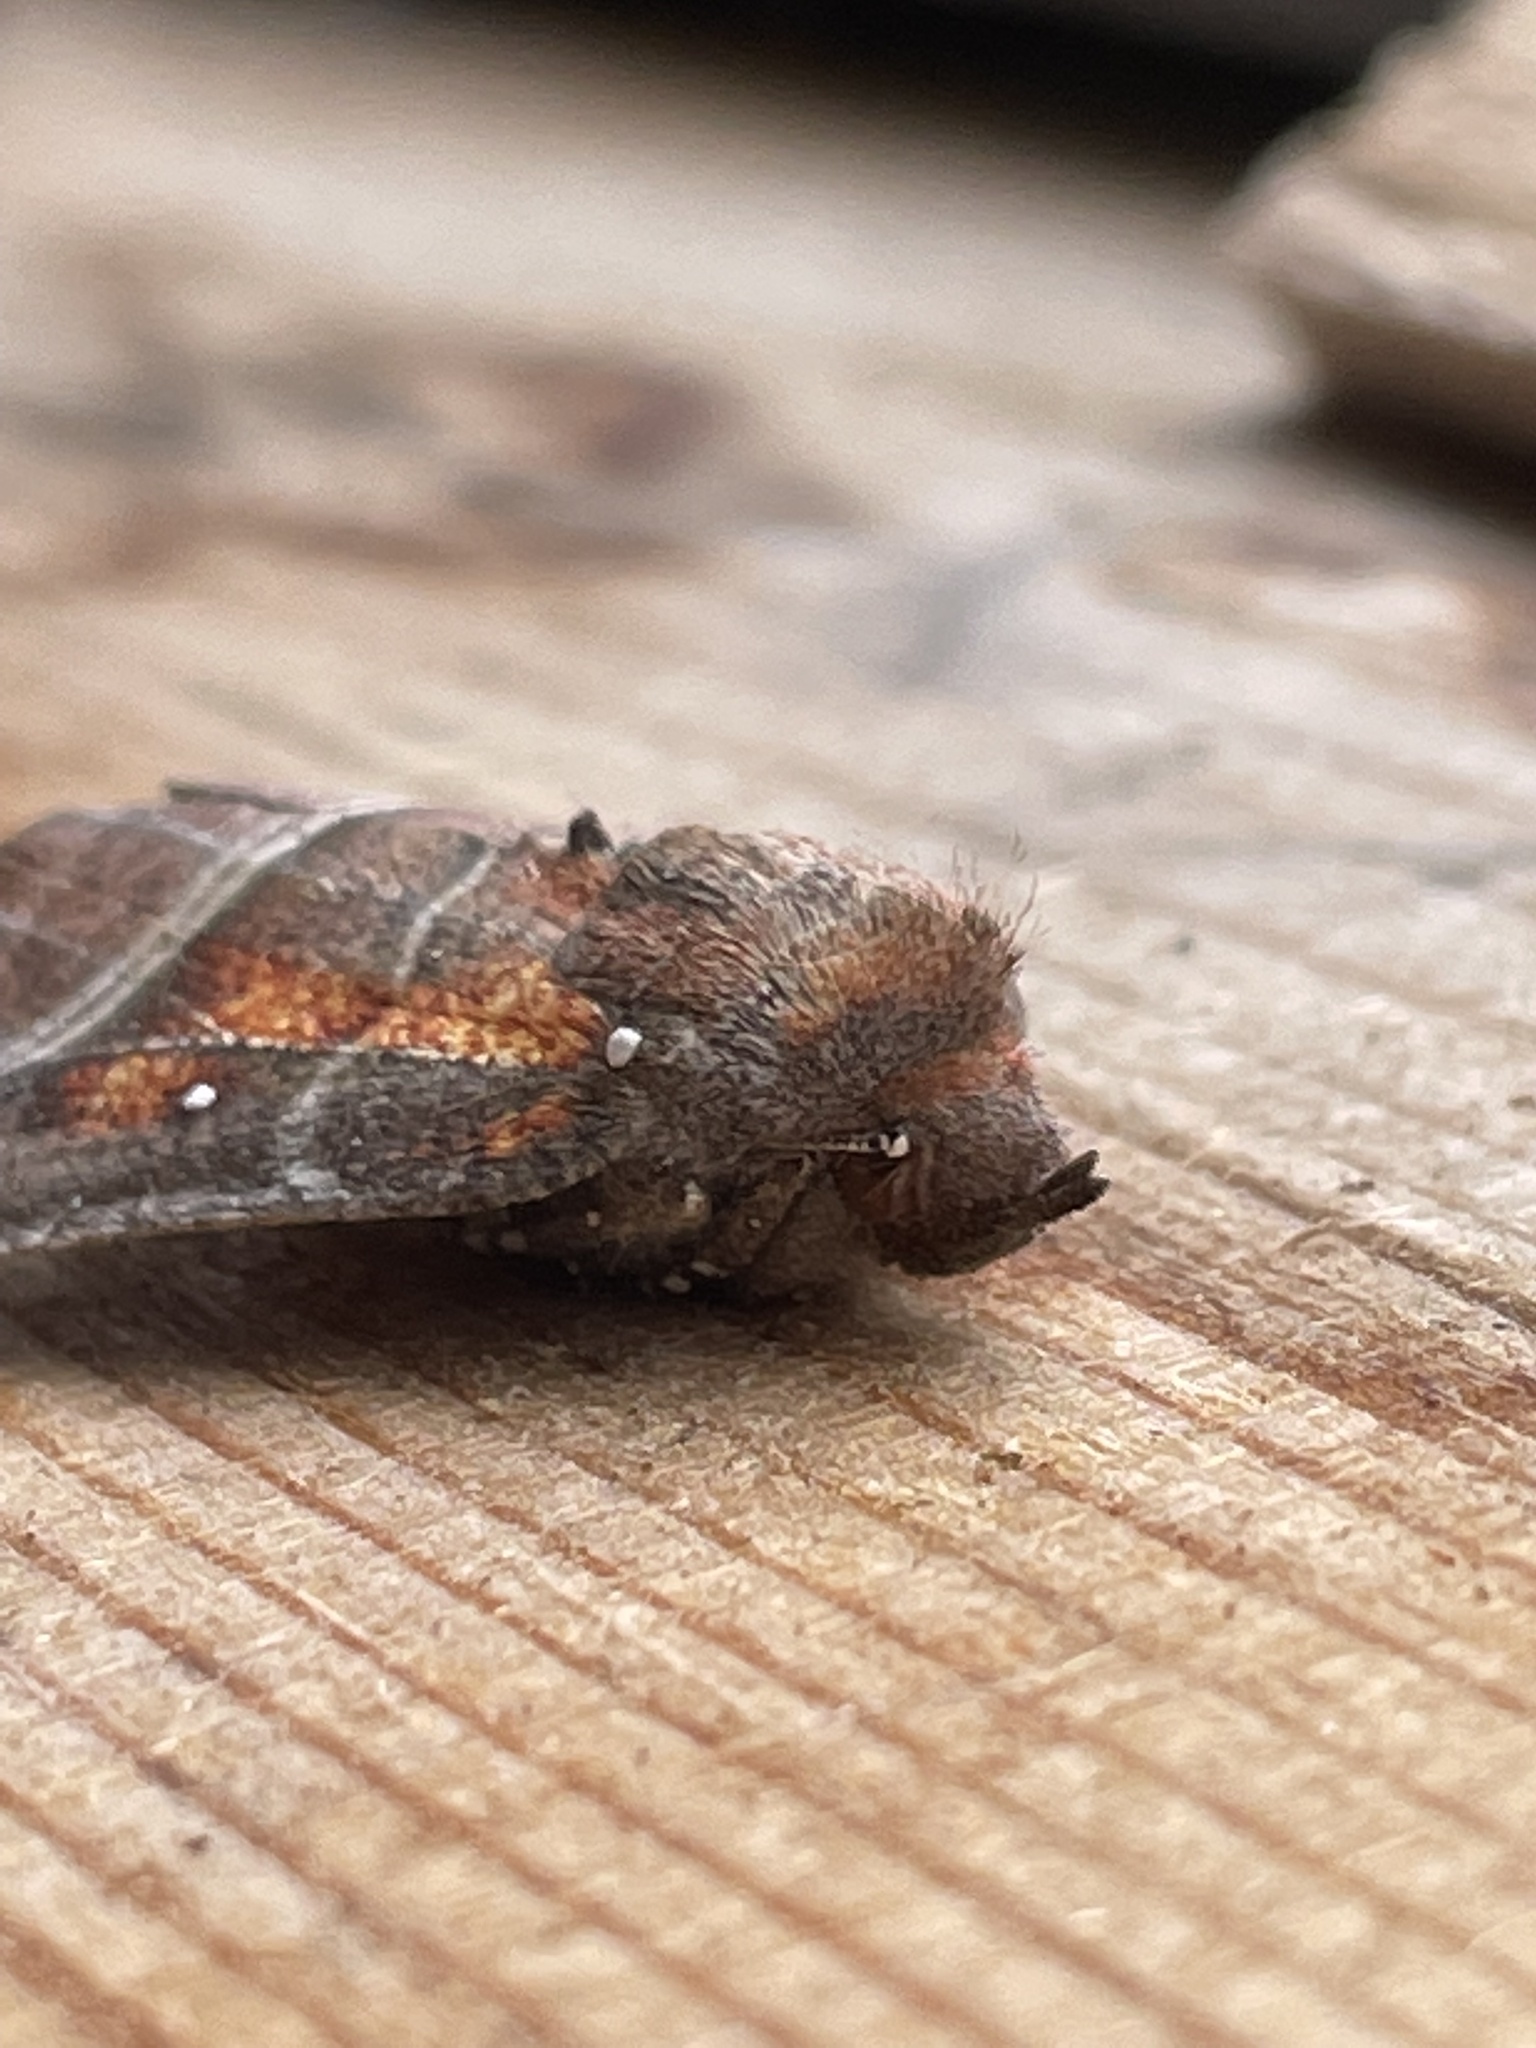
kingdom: Animalia
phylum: Arthropoda
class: Insecta
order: Lepidoptera
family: Erebidae
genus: Scoliopteryx
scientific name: Scoliopteryx libatrix
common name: Herald
